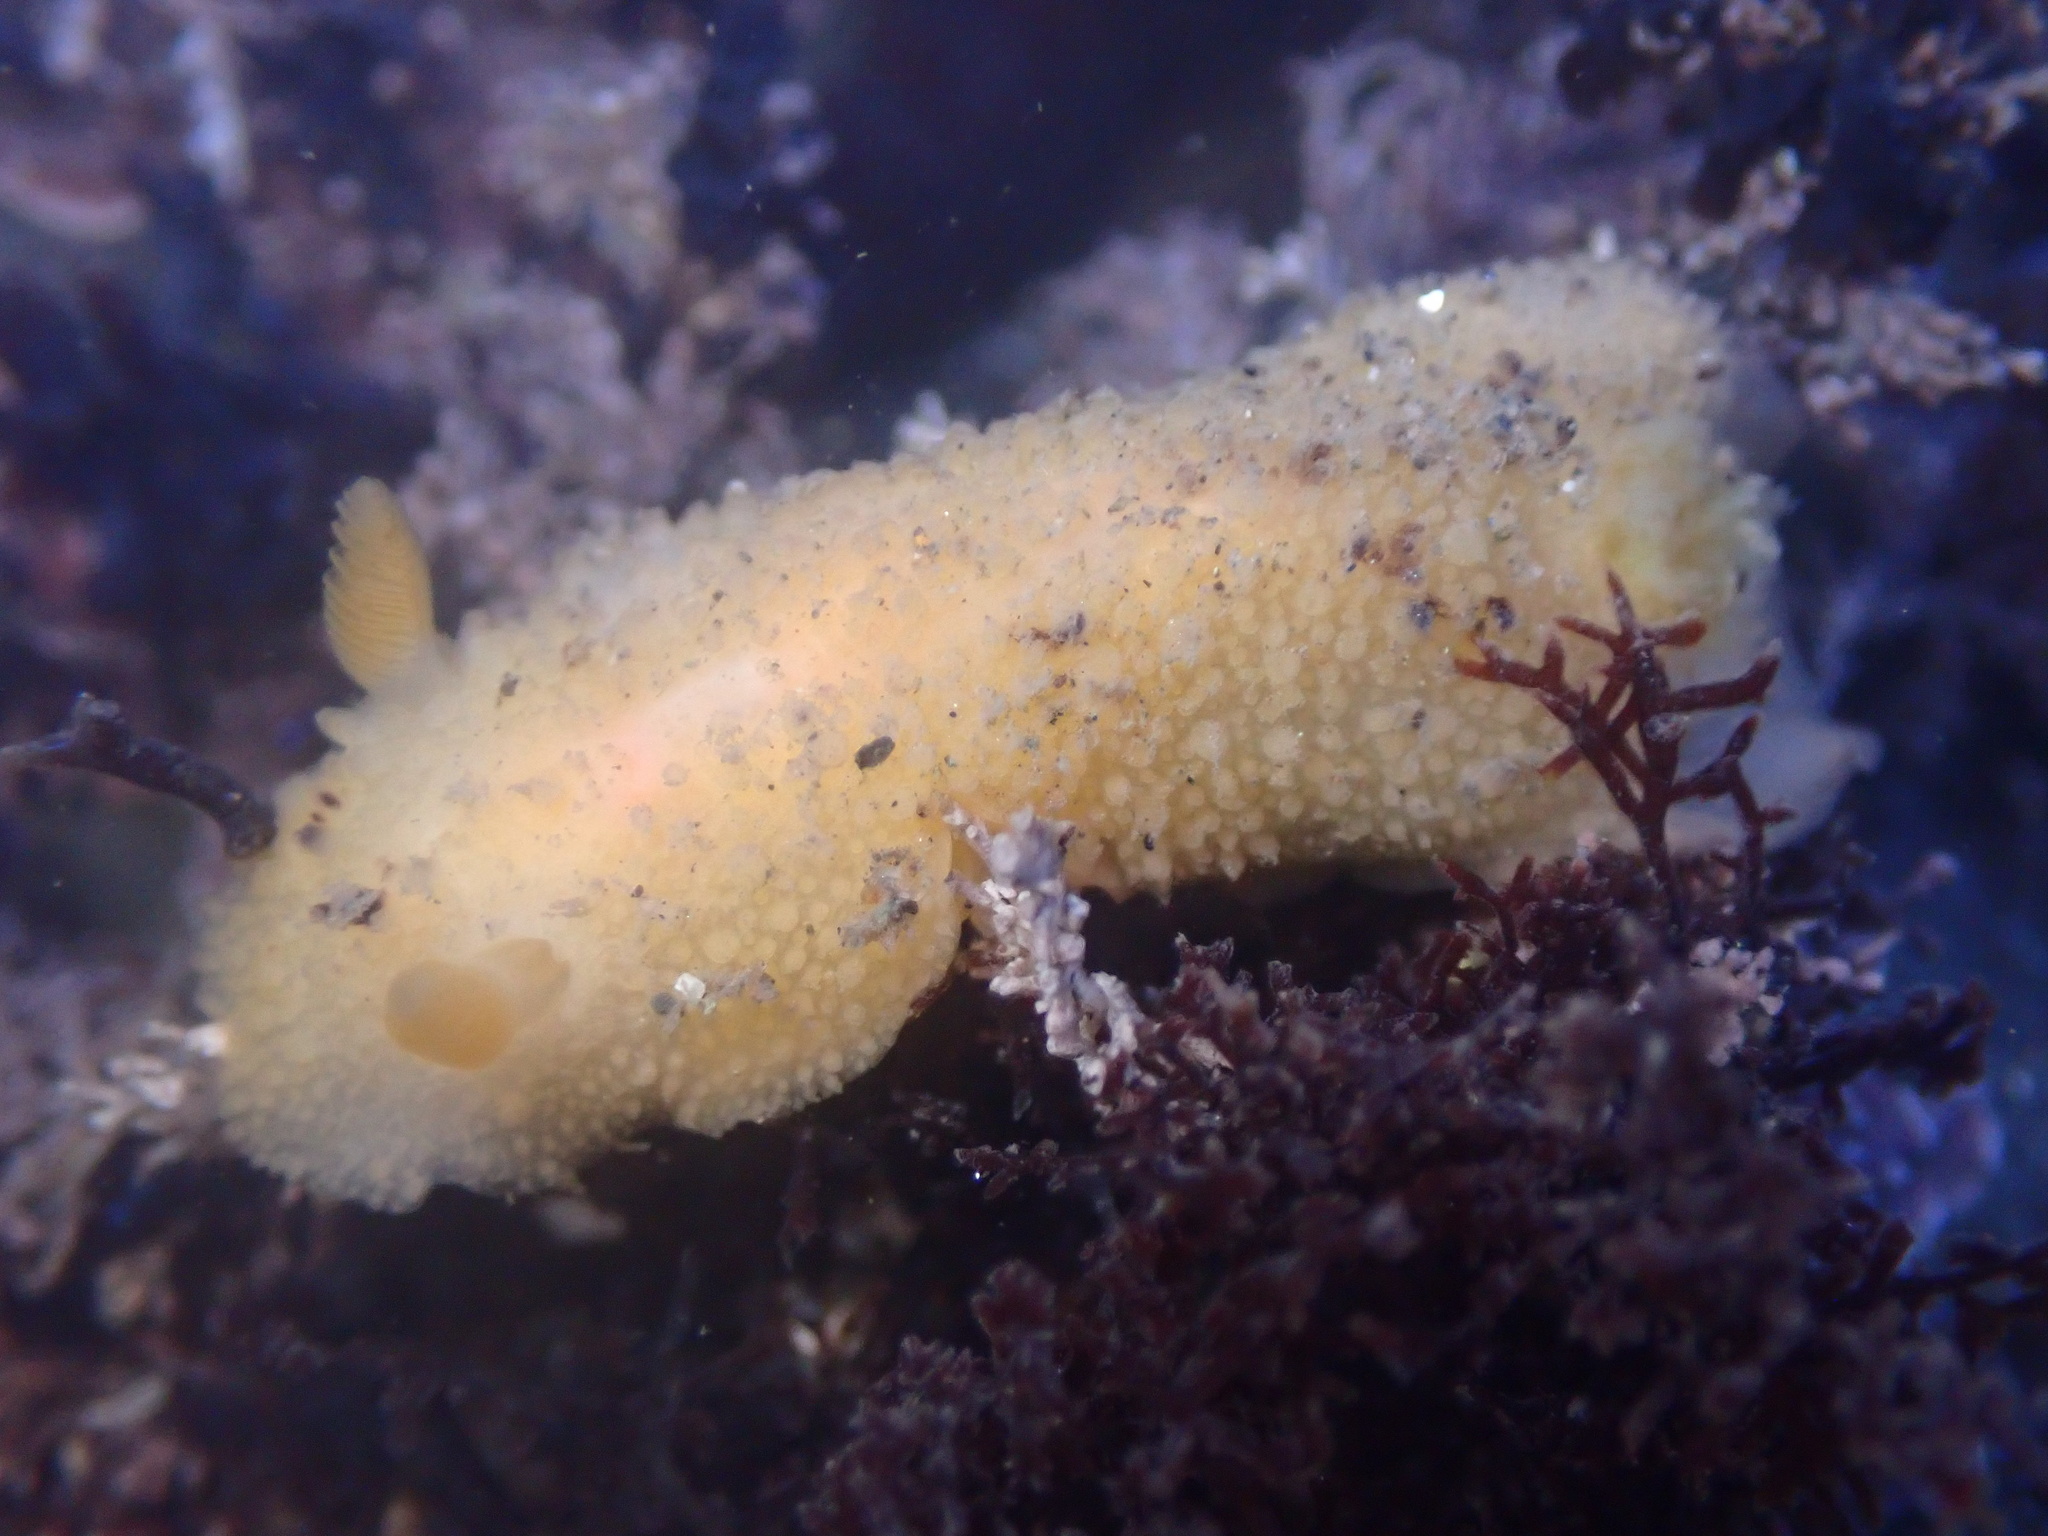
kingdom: Animalia
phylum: Mollusca
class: Gastropoda
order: Nudibranchia
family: Dorididae
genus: Doris
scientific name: Doris montereyensis
